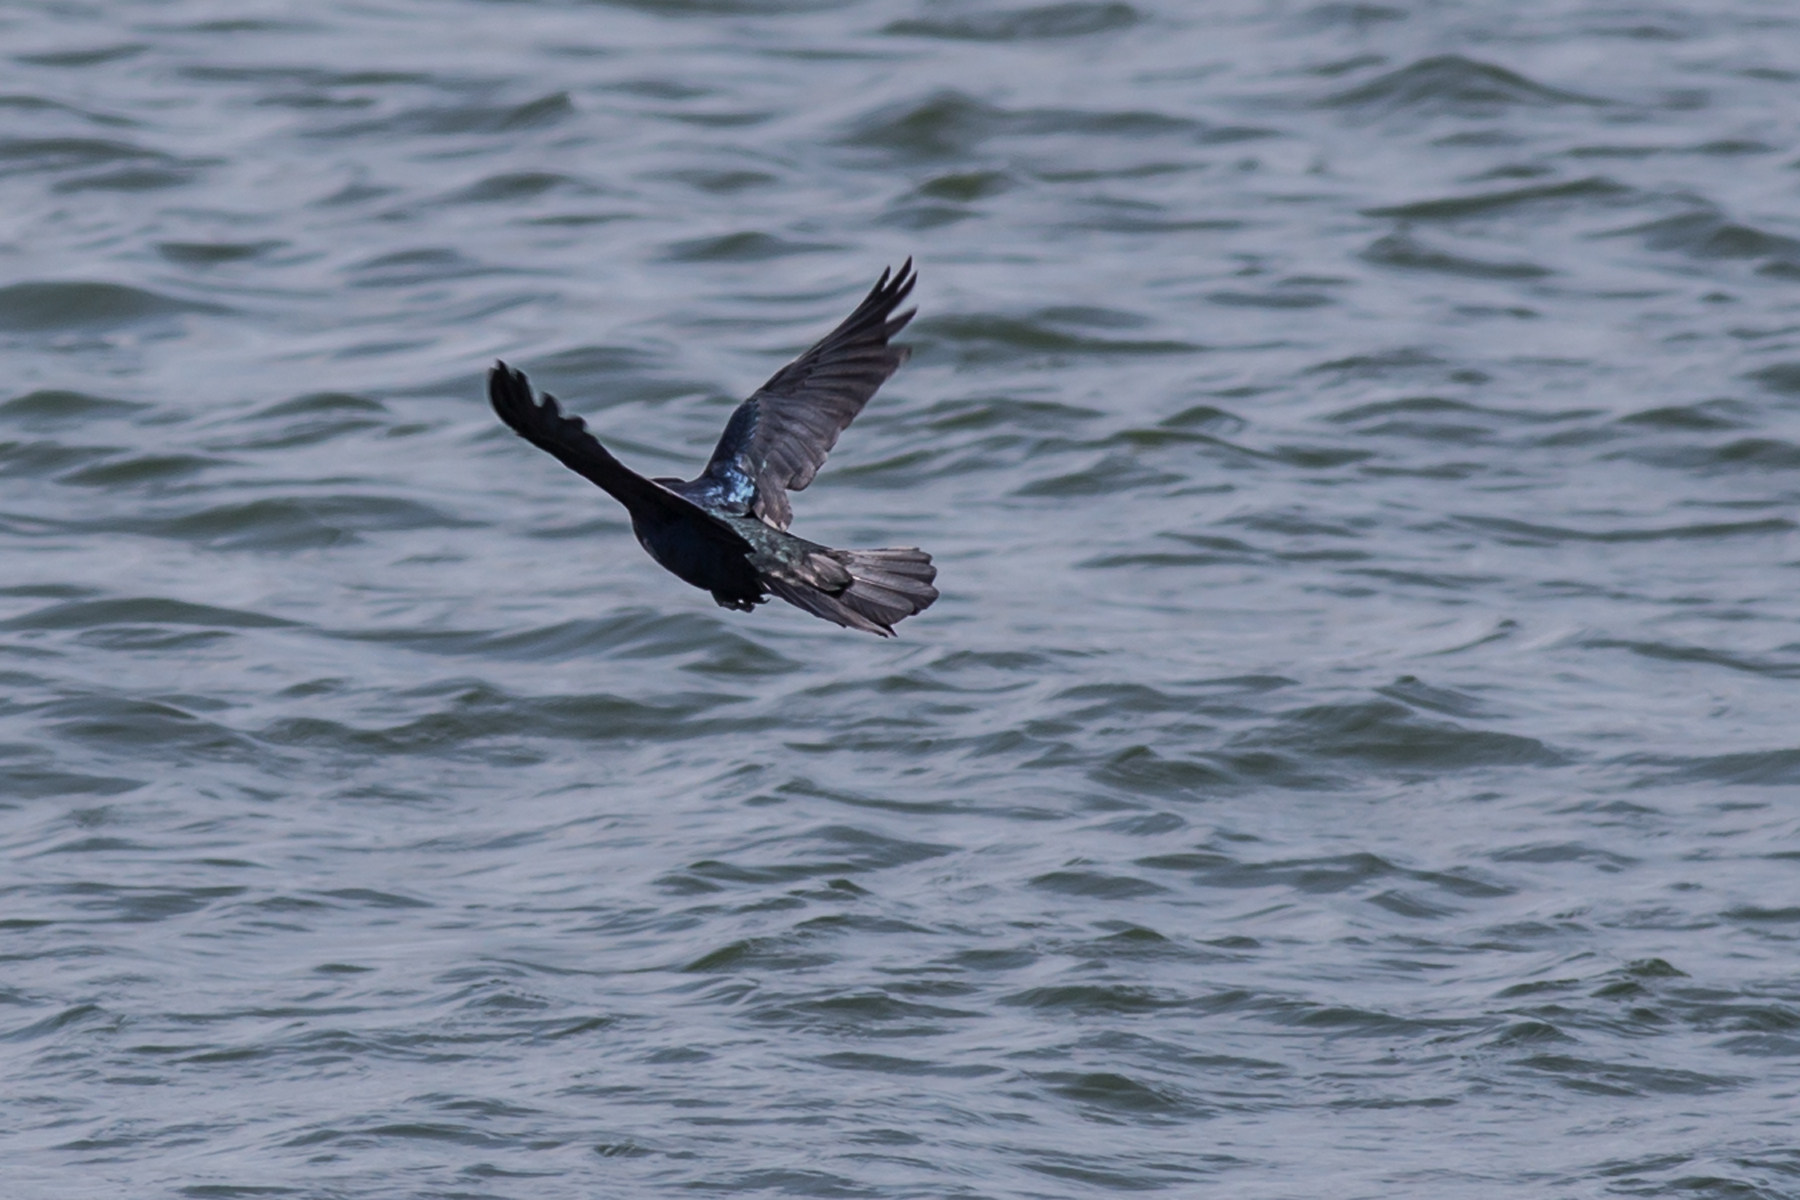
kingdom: Animalia
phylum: Chordata
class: Aves
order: Passeriformes
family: Icteridae
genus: Quiscalus
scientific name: Quiscalus major
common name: Boat-tailed grackle
